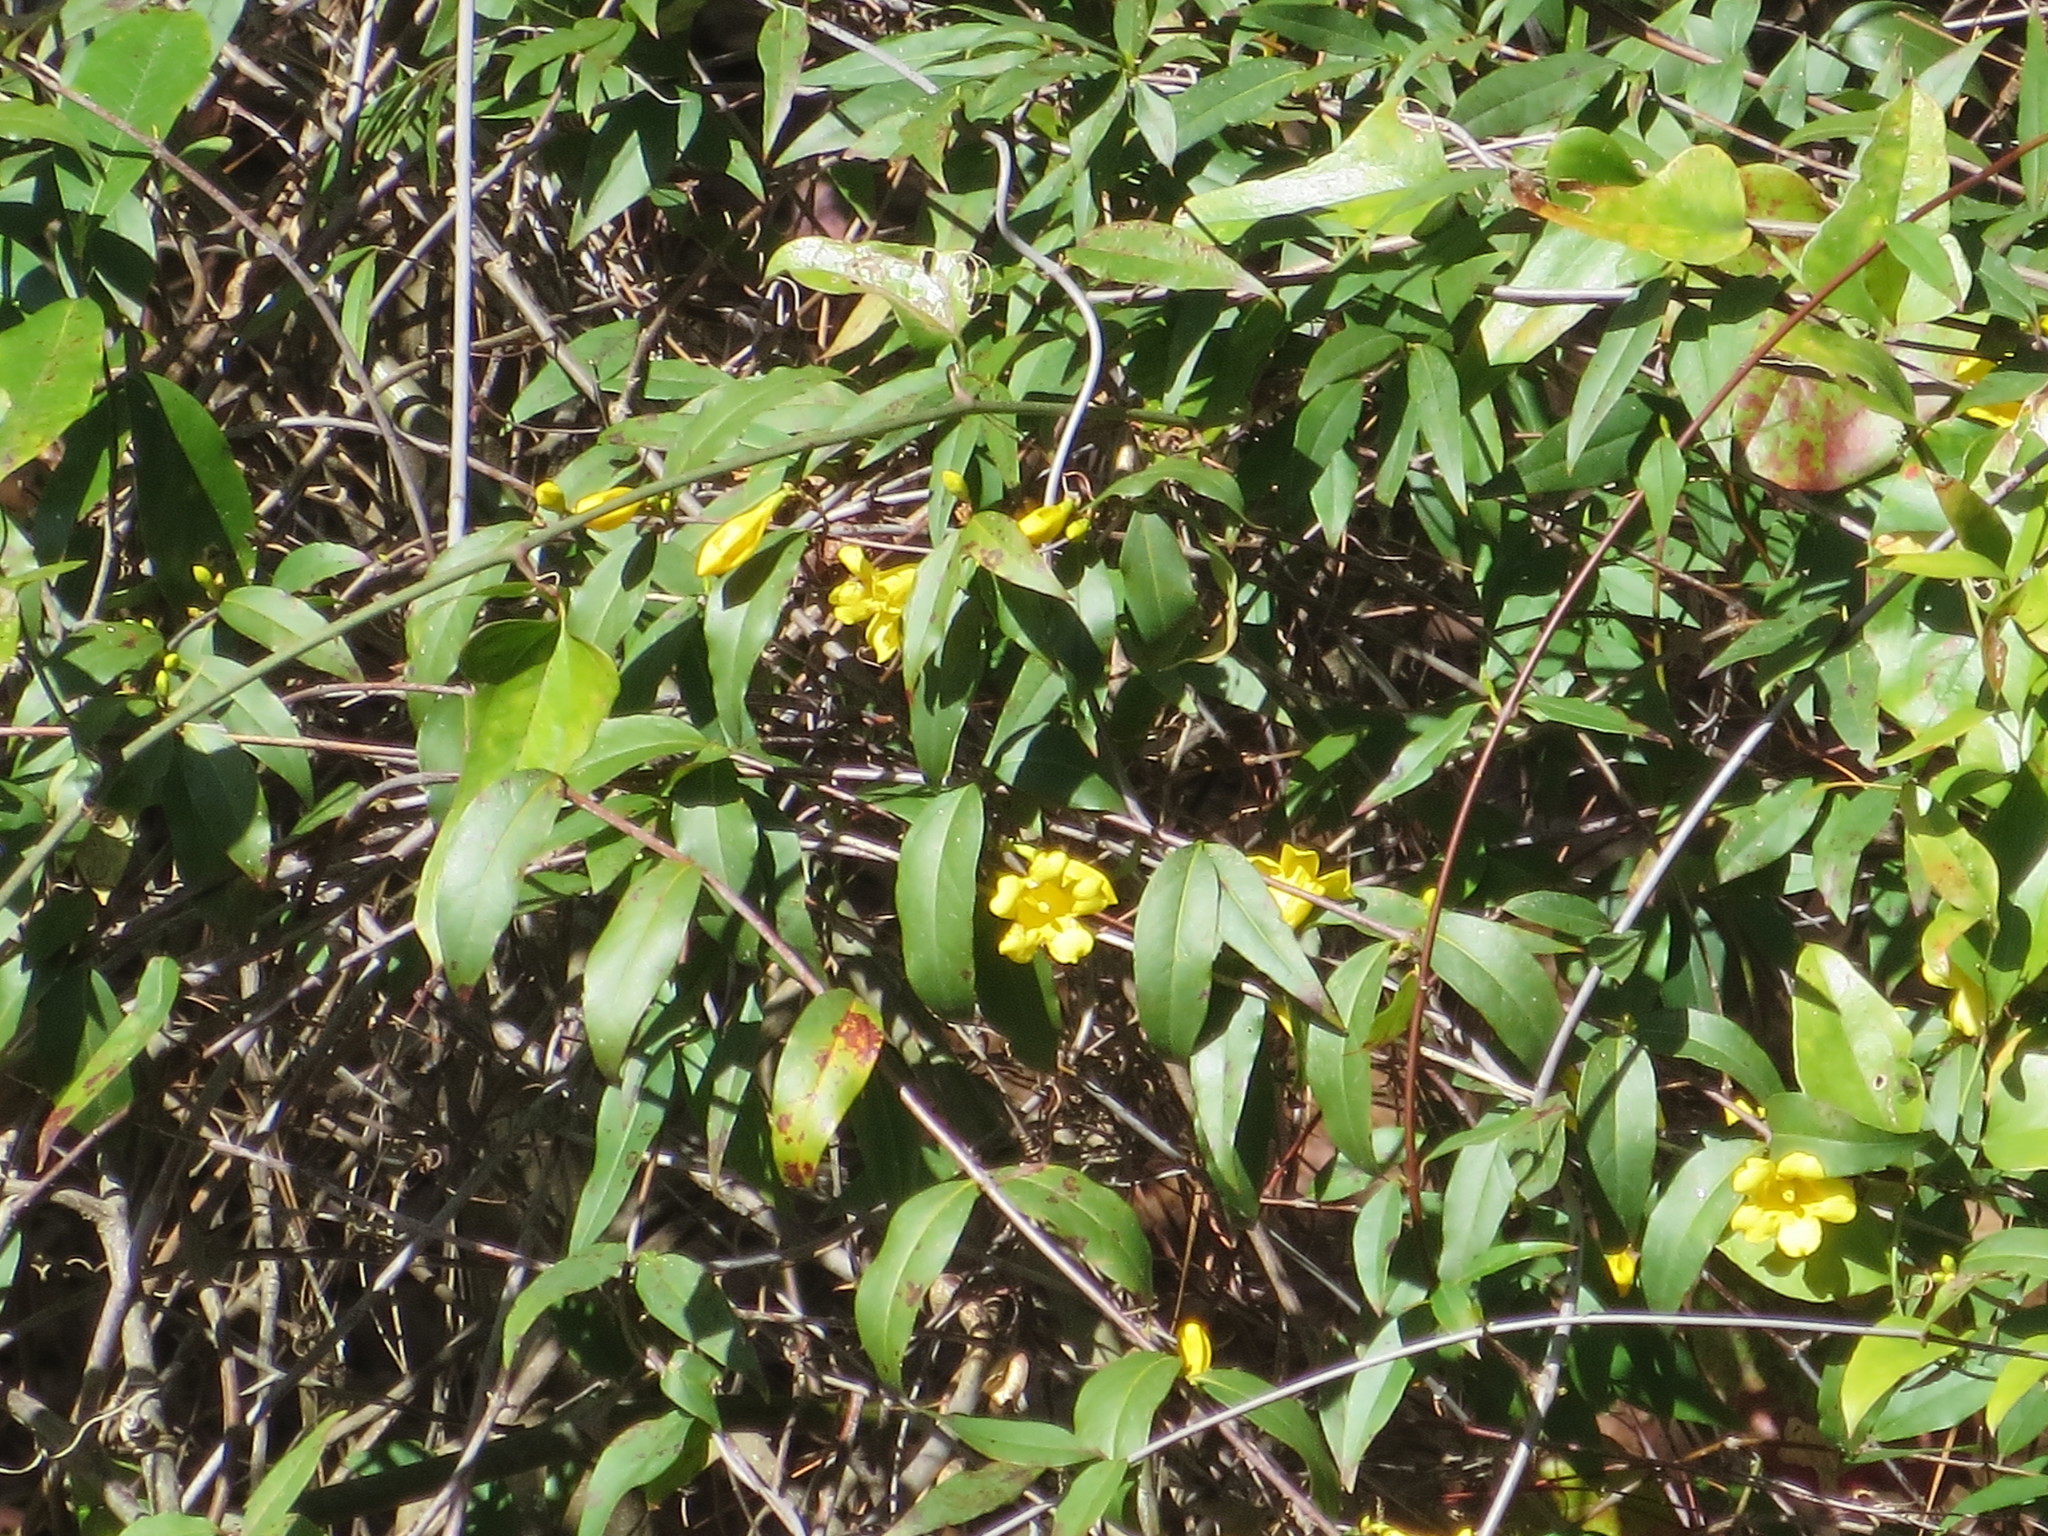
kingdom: Plantae
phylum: Tracheophyta
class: Magnoliopsida
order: Gentianales
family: Gelsemiaceae
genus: Gelsemium
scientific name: Gelsemium sempervirens
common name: Carolina-jasmine
